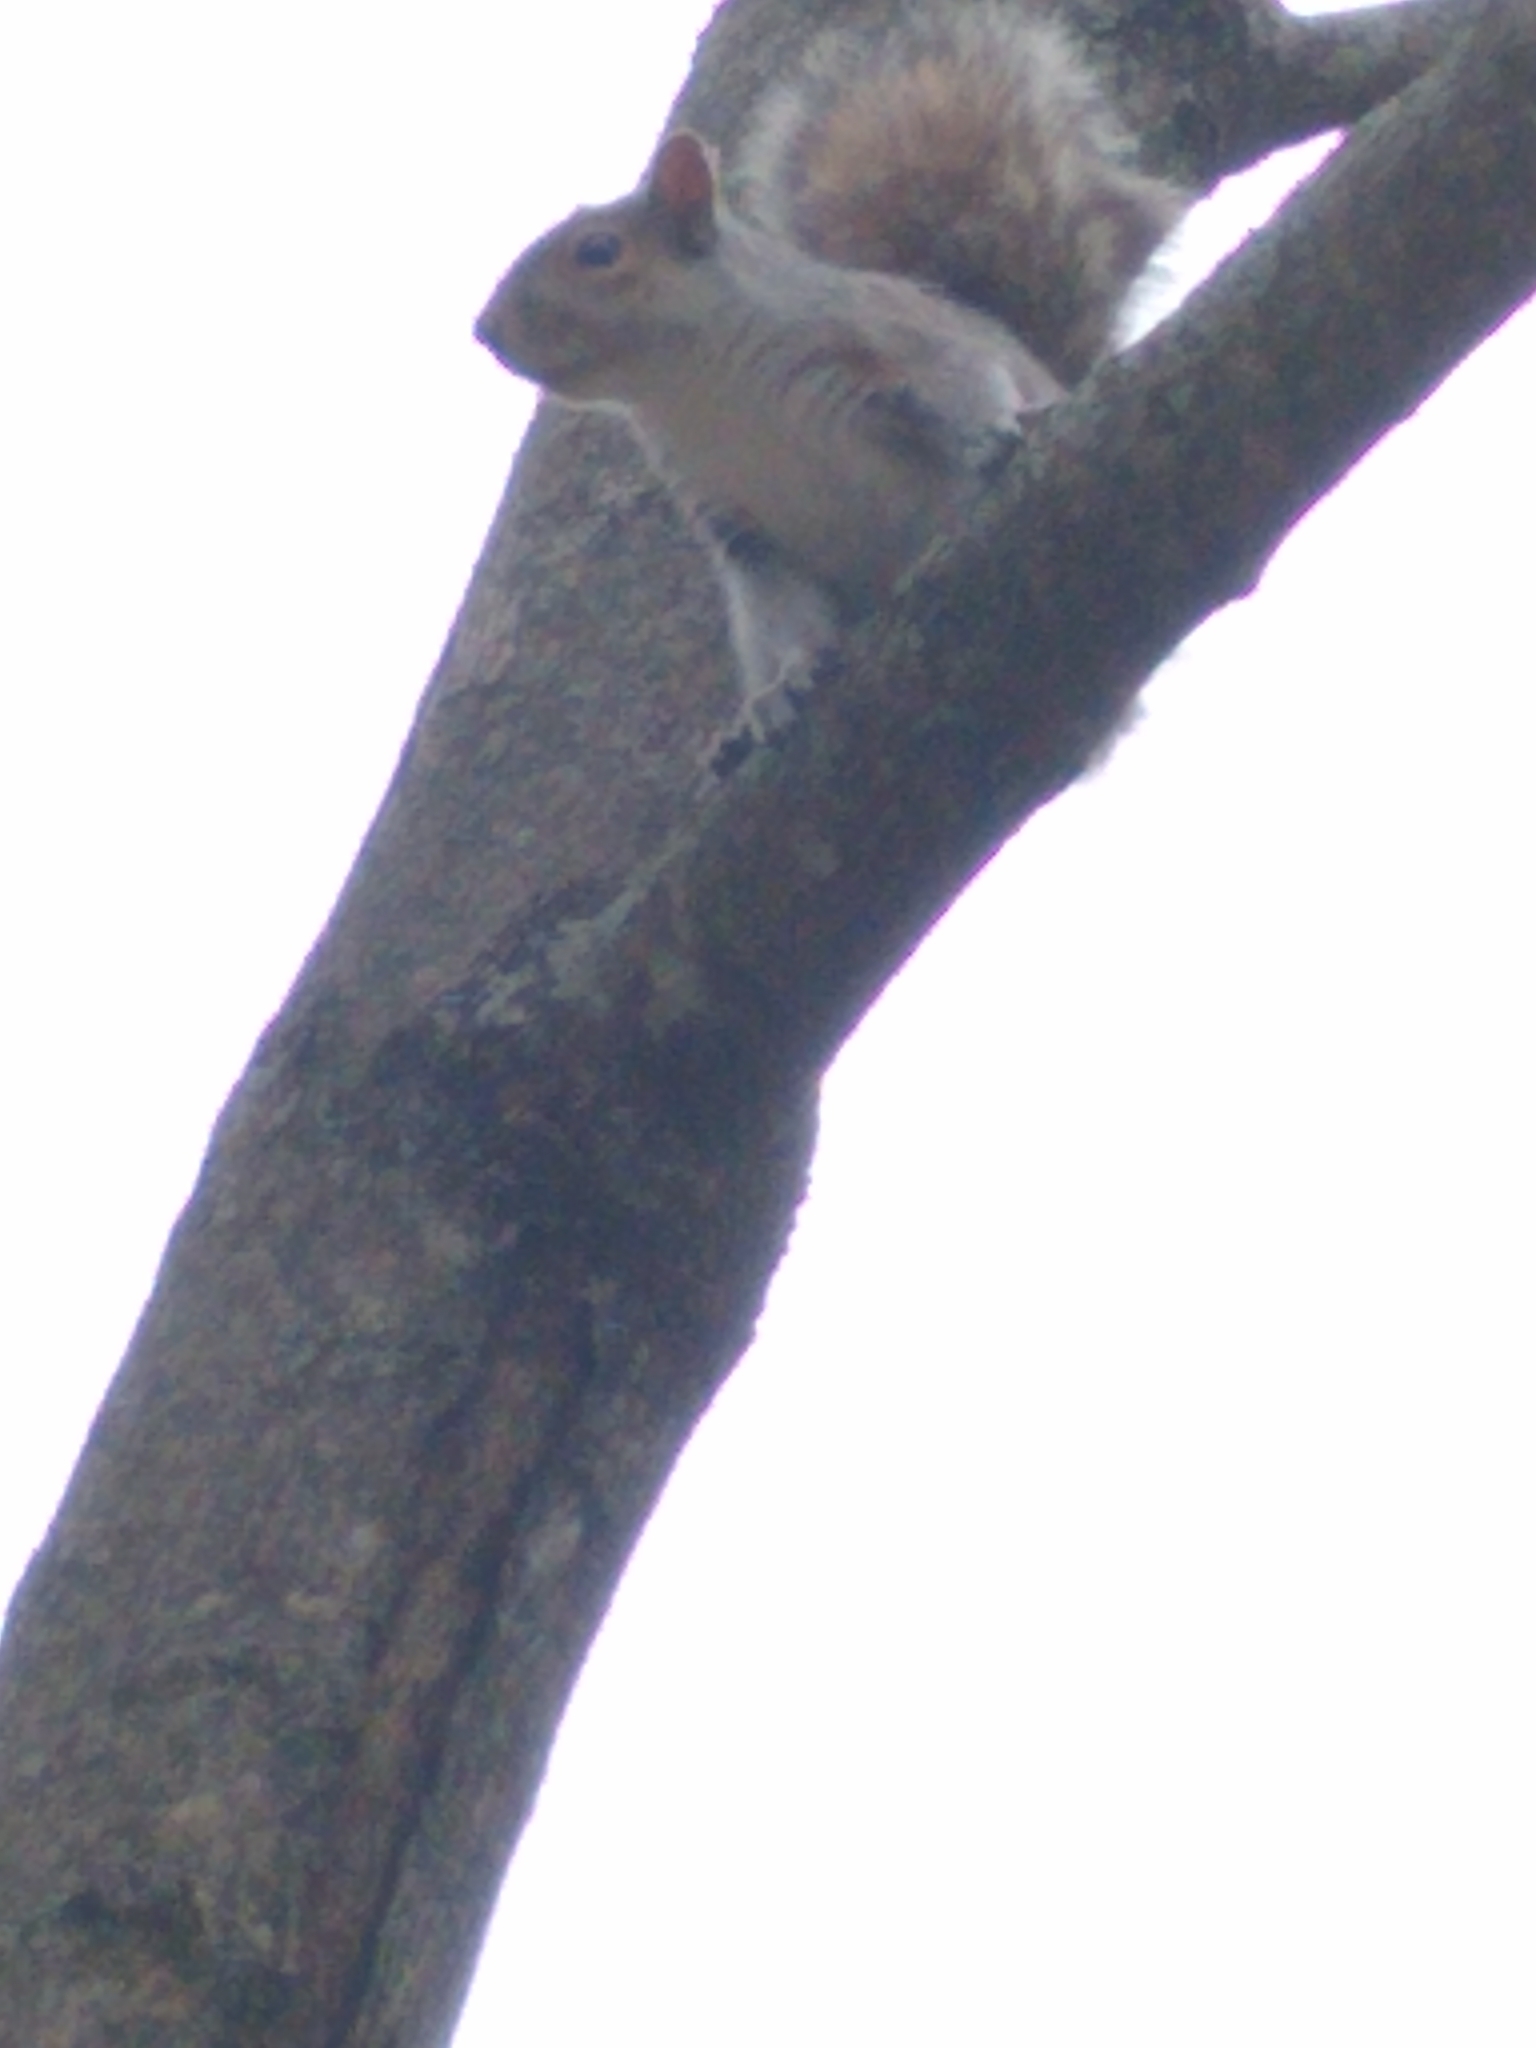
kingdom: Animalia
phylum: Chordata
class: Mammalia
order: Rodentia
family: Sciuridae
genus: Sciurus
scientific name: Sciurus carolinensis
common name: Eastern gray squirrel
